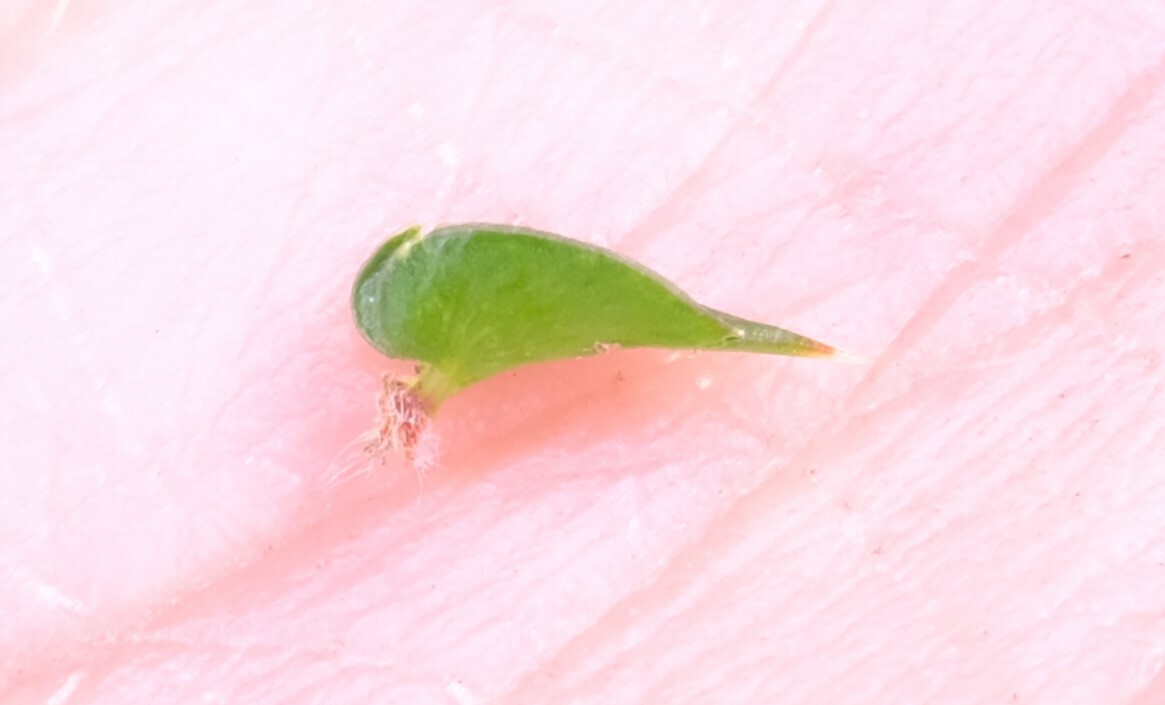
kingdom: Plantae
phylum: Tracheophyta
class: Magnoliopsida
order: Ericales
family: Ericaceae
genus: Epacris
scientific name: Epacris gunnii
